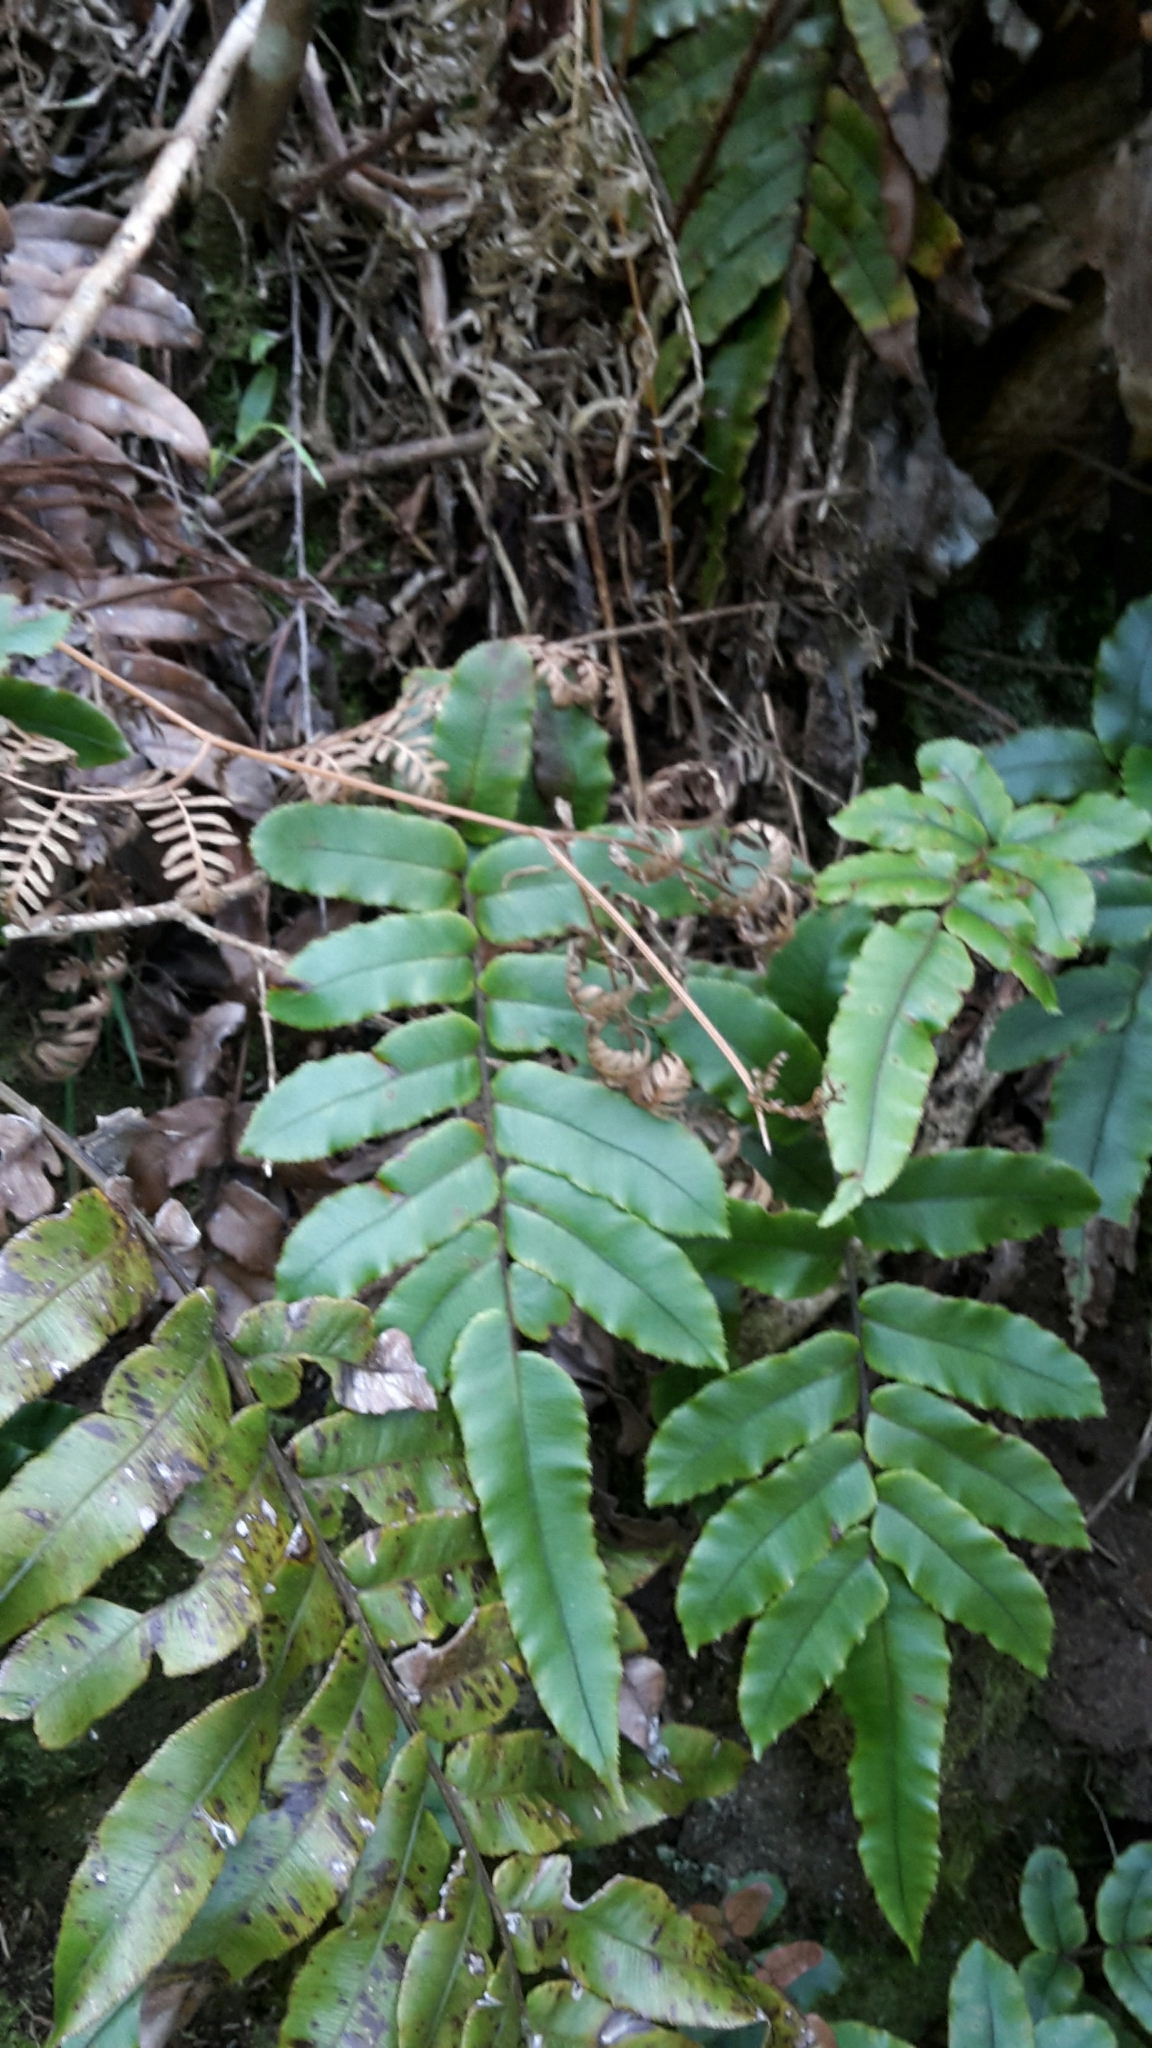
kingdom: Plantae
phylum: Tracheophyta
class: Polypodiopsida
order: Polypodiales
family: Blechnaceae
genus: Parablechnum
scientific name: Parablechnum procerum
